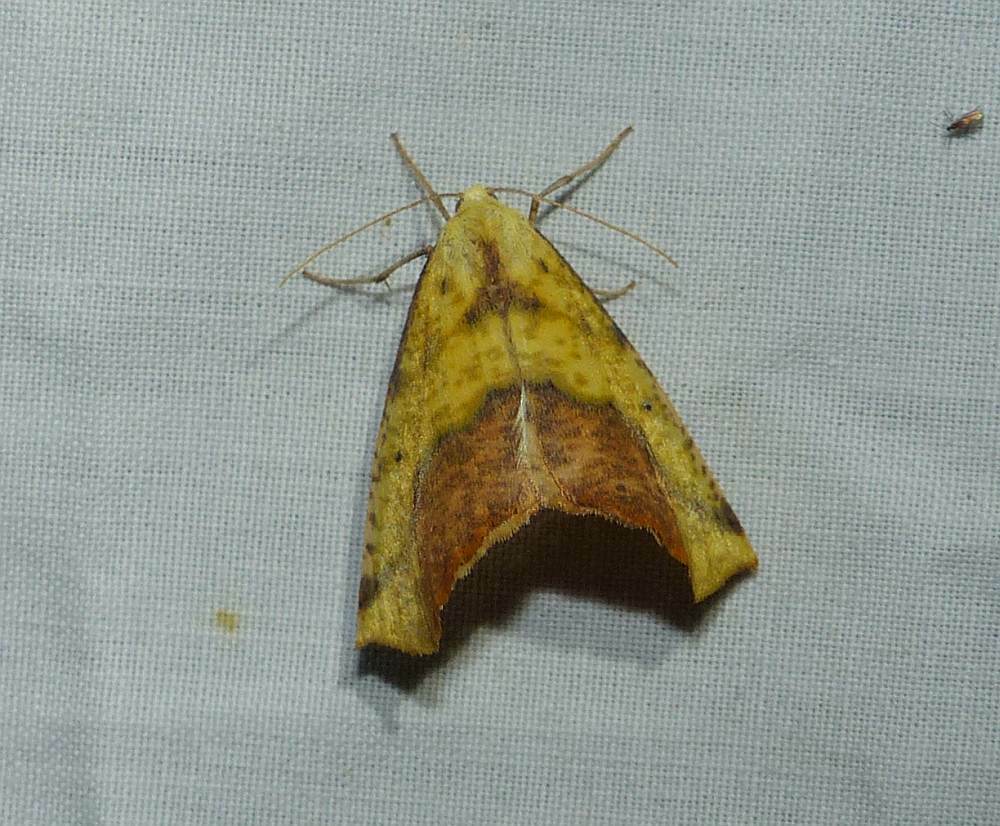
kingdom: Animalia
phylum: Arthropoda
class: Insecta
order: Lepidoptera
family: Geometridae
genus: Sicya
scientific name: Sicya macularia
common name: Sharp-lined yellow
